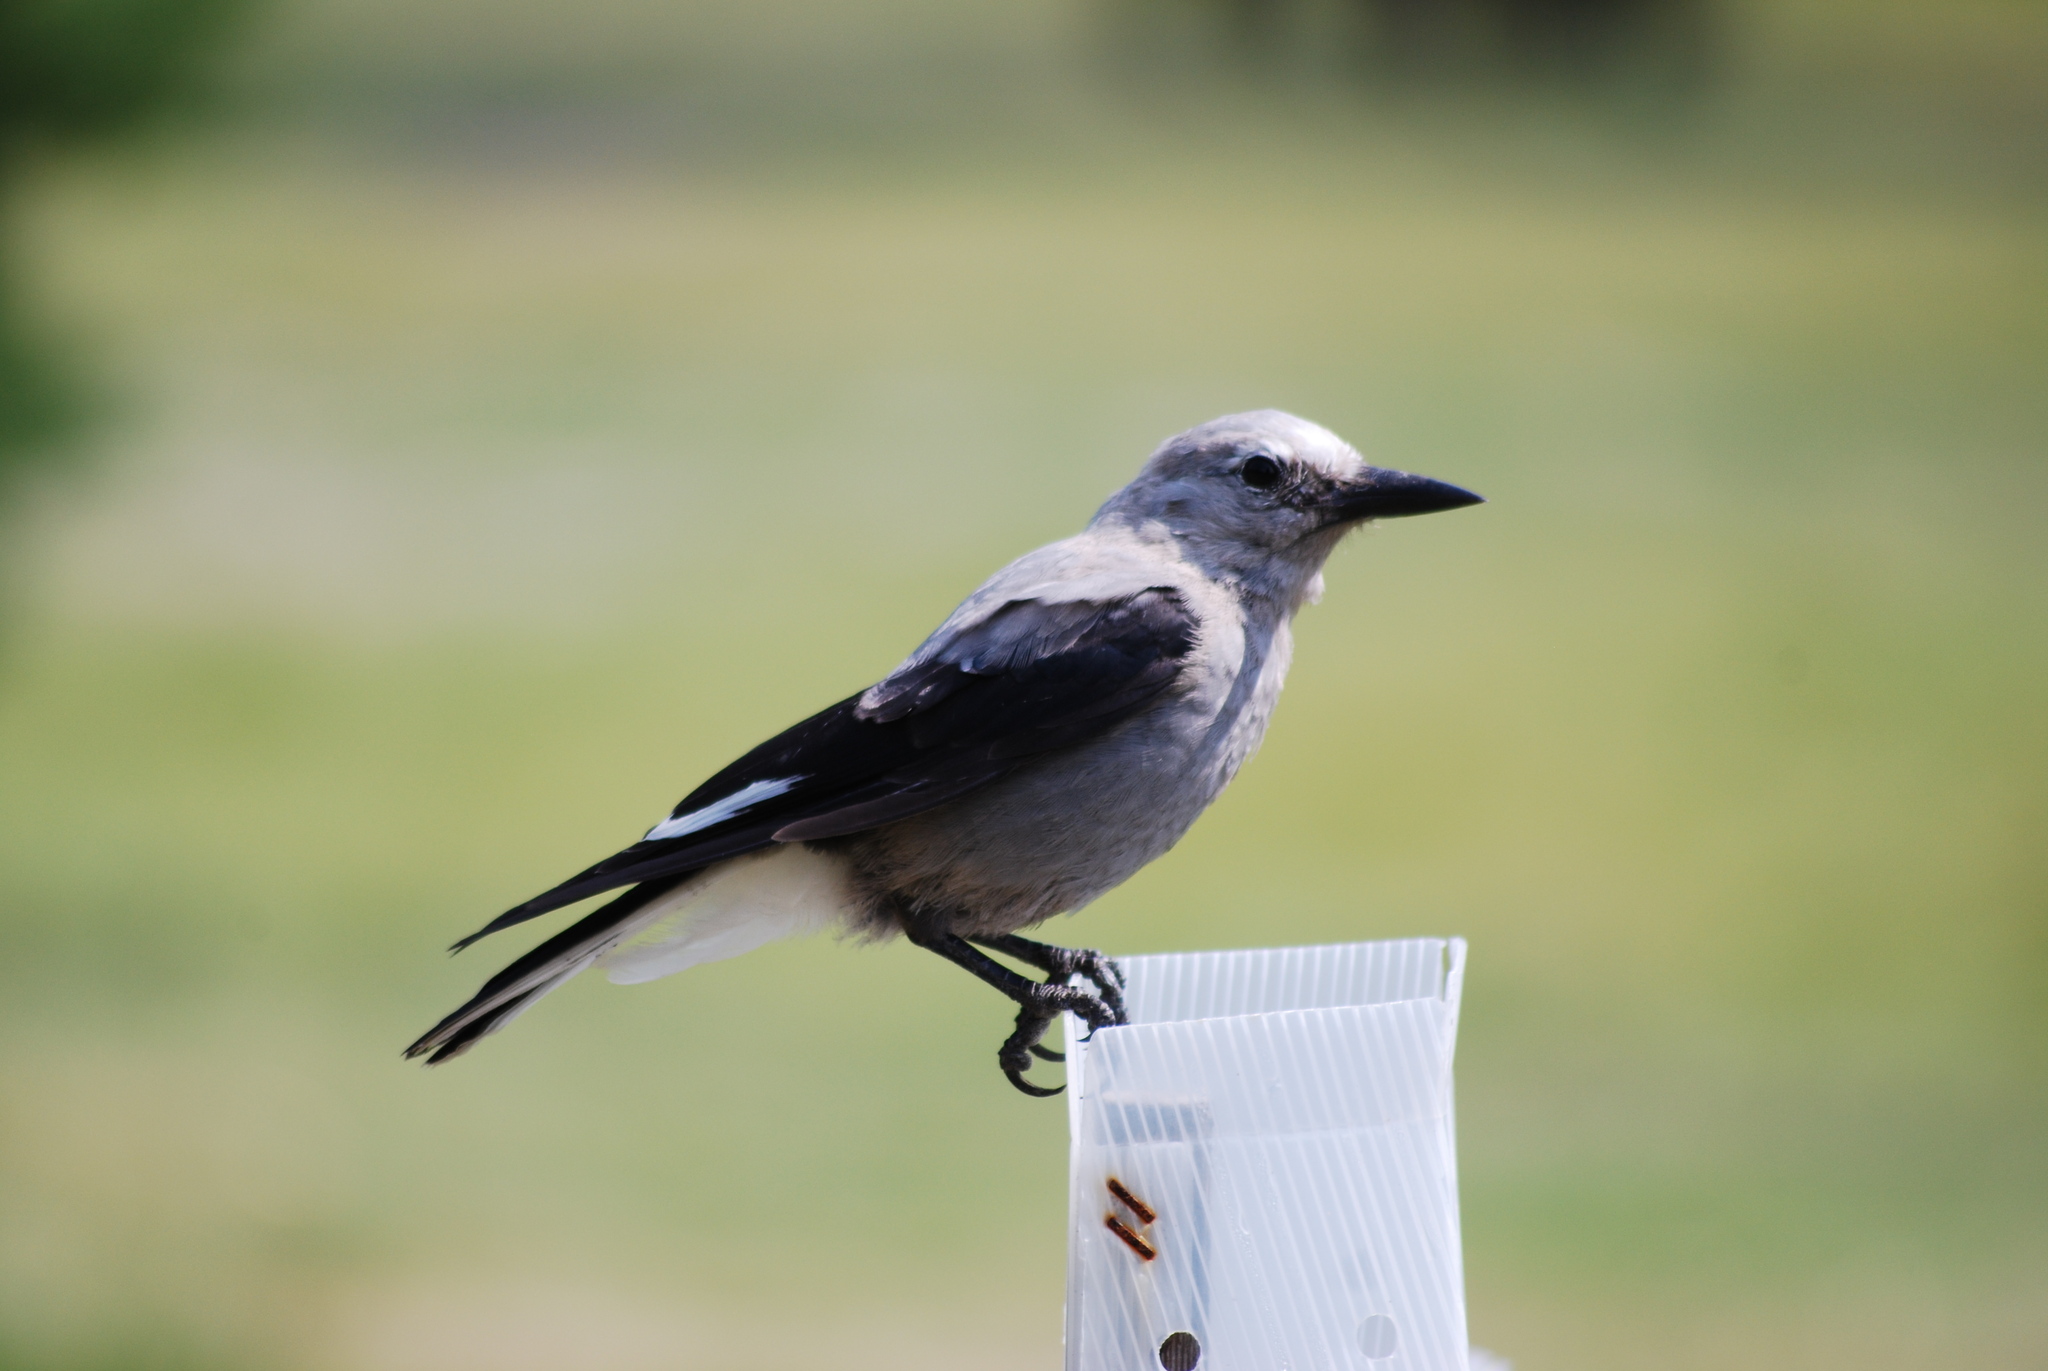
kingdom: Animalia
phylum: Chordata
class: Aves
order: Passeriformes
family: Corvidae
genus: Nucifraga
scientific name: Nucifraga columbiana
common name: Clark's nutcracker
